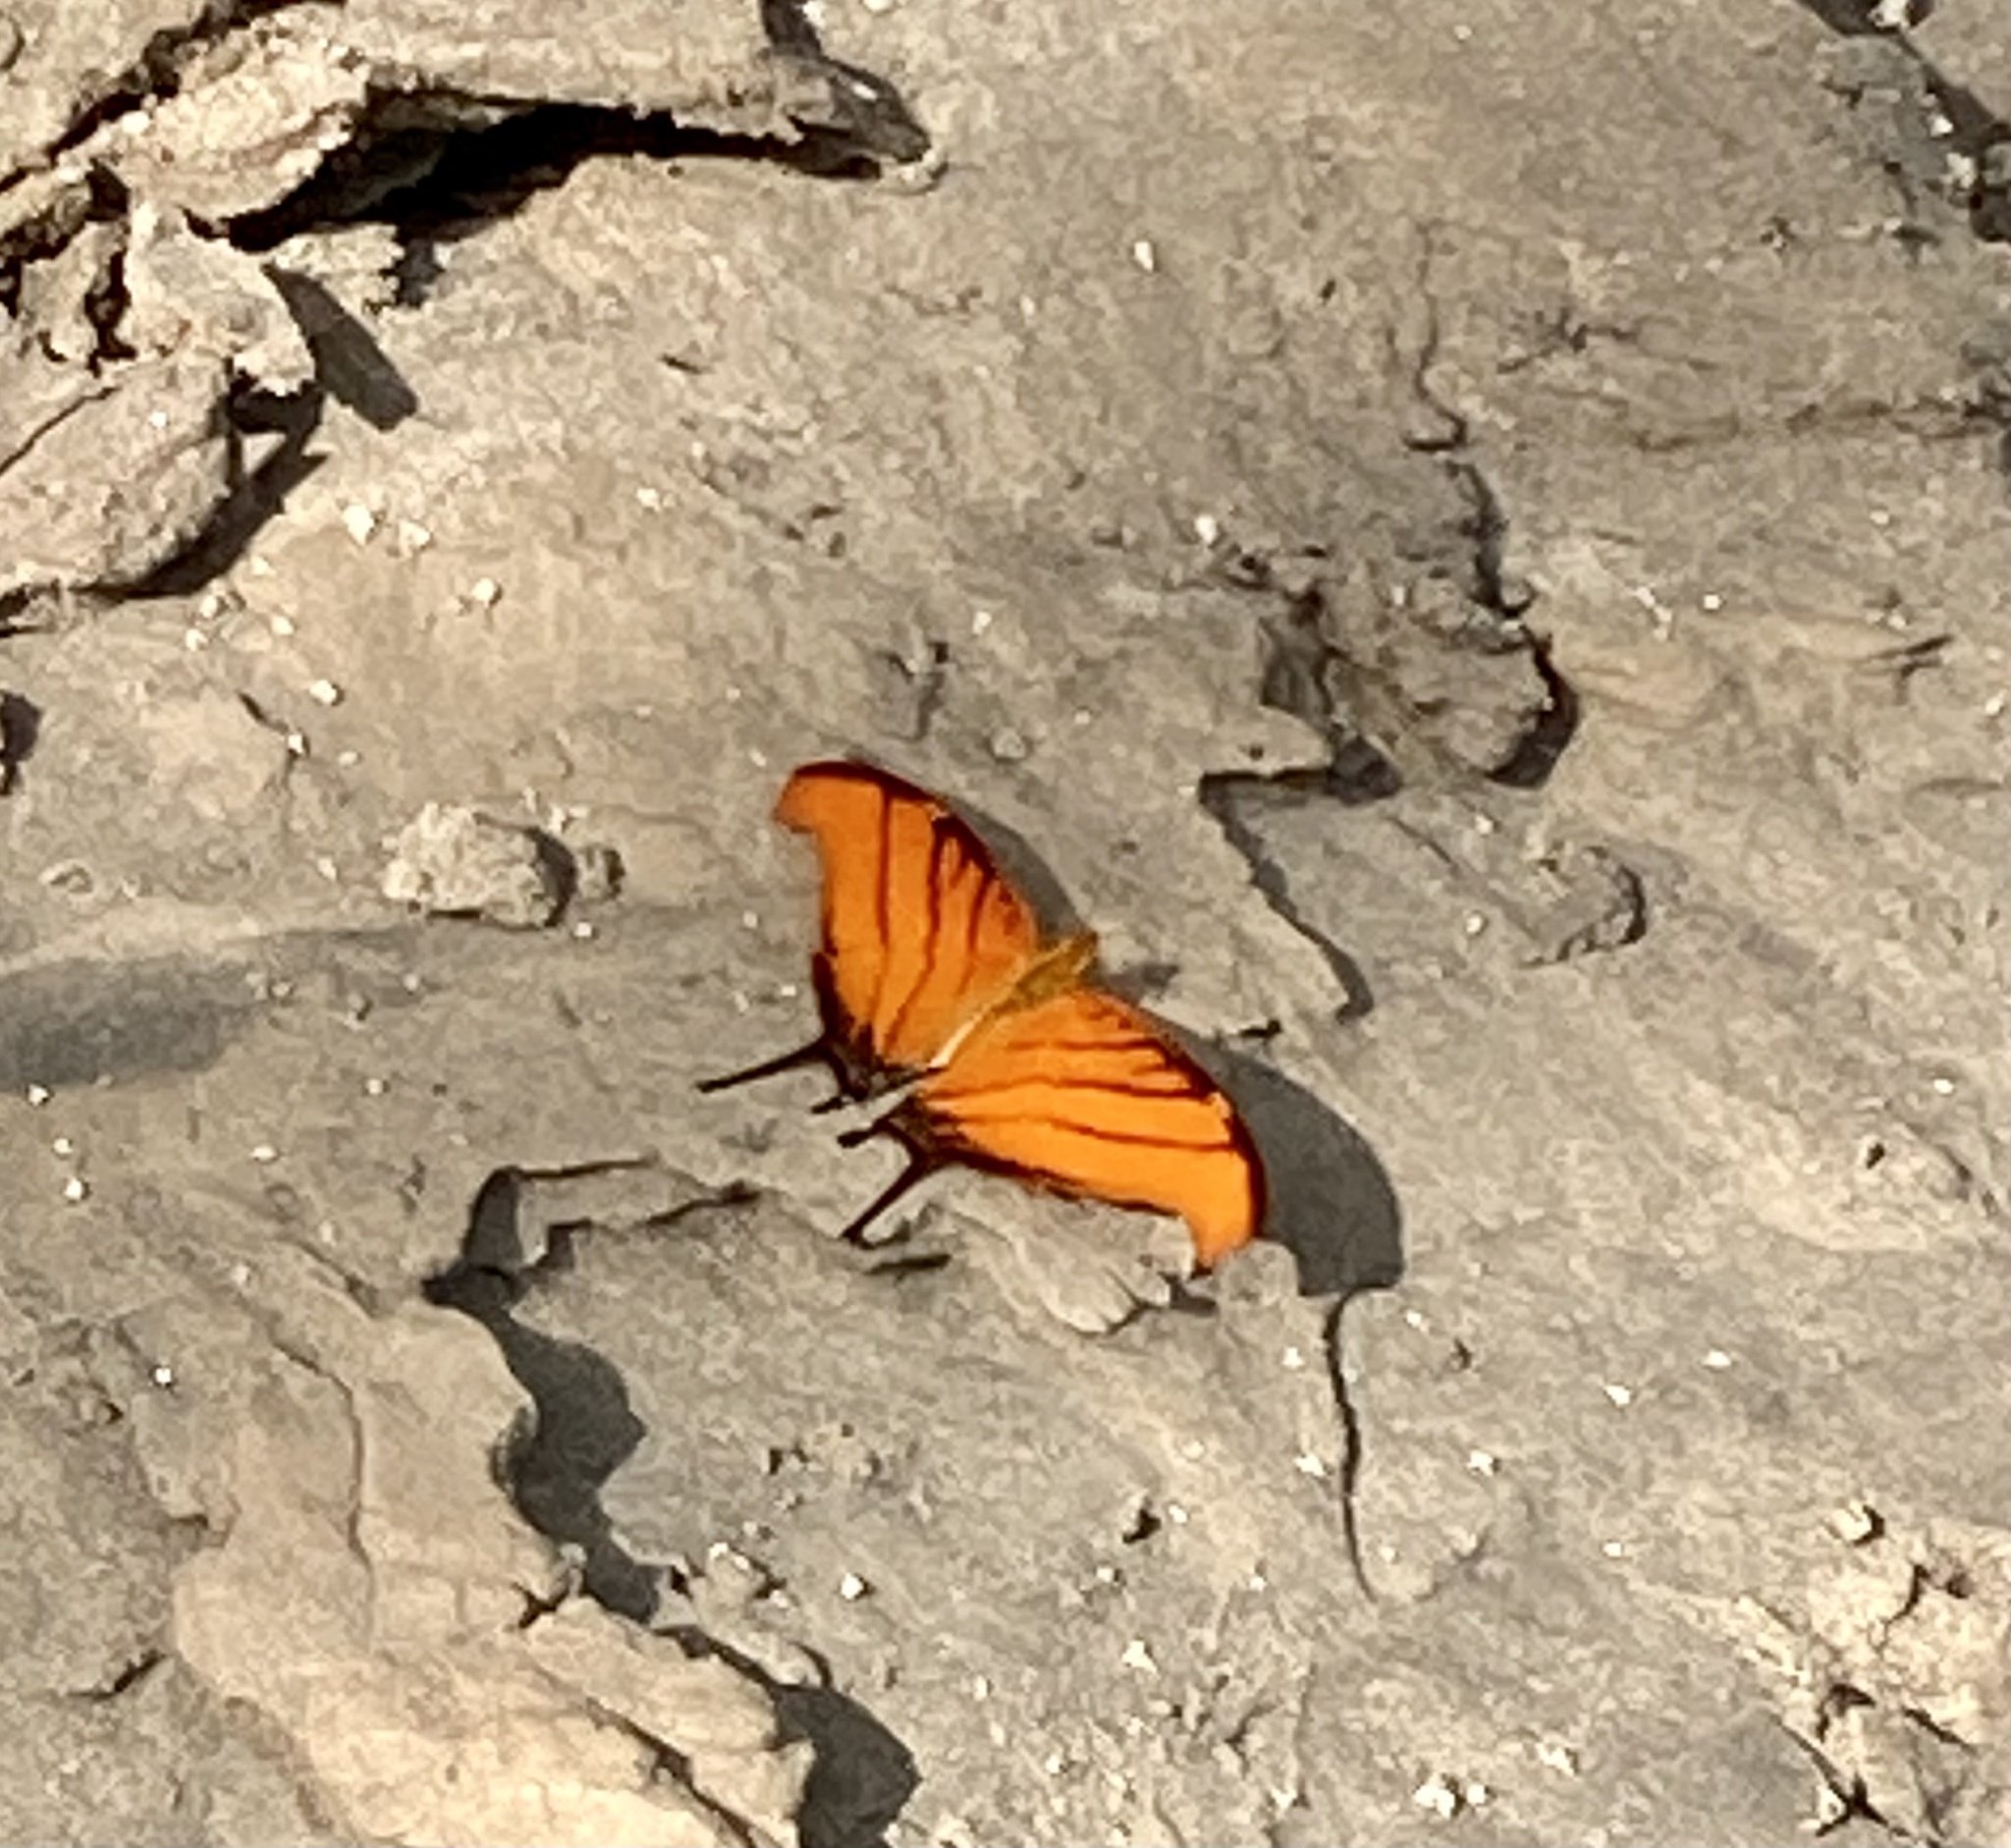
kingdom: Animalia
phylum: Arthropoda
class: Insecta
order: Lepidoptera
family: Nymphalidae
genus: Marpesia
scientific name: Marpesia petreus
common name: Red dagger wing
